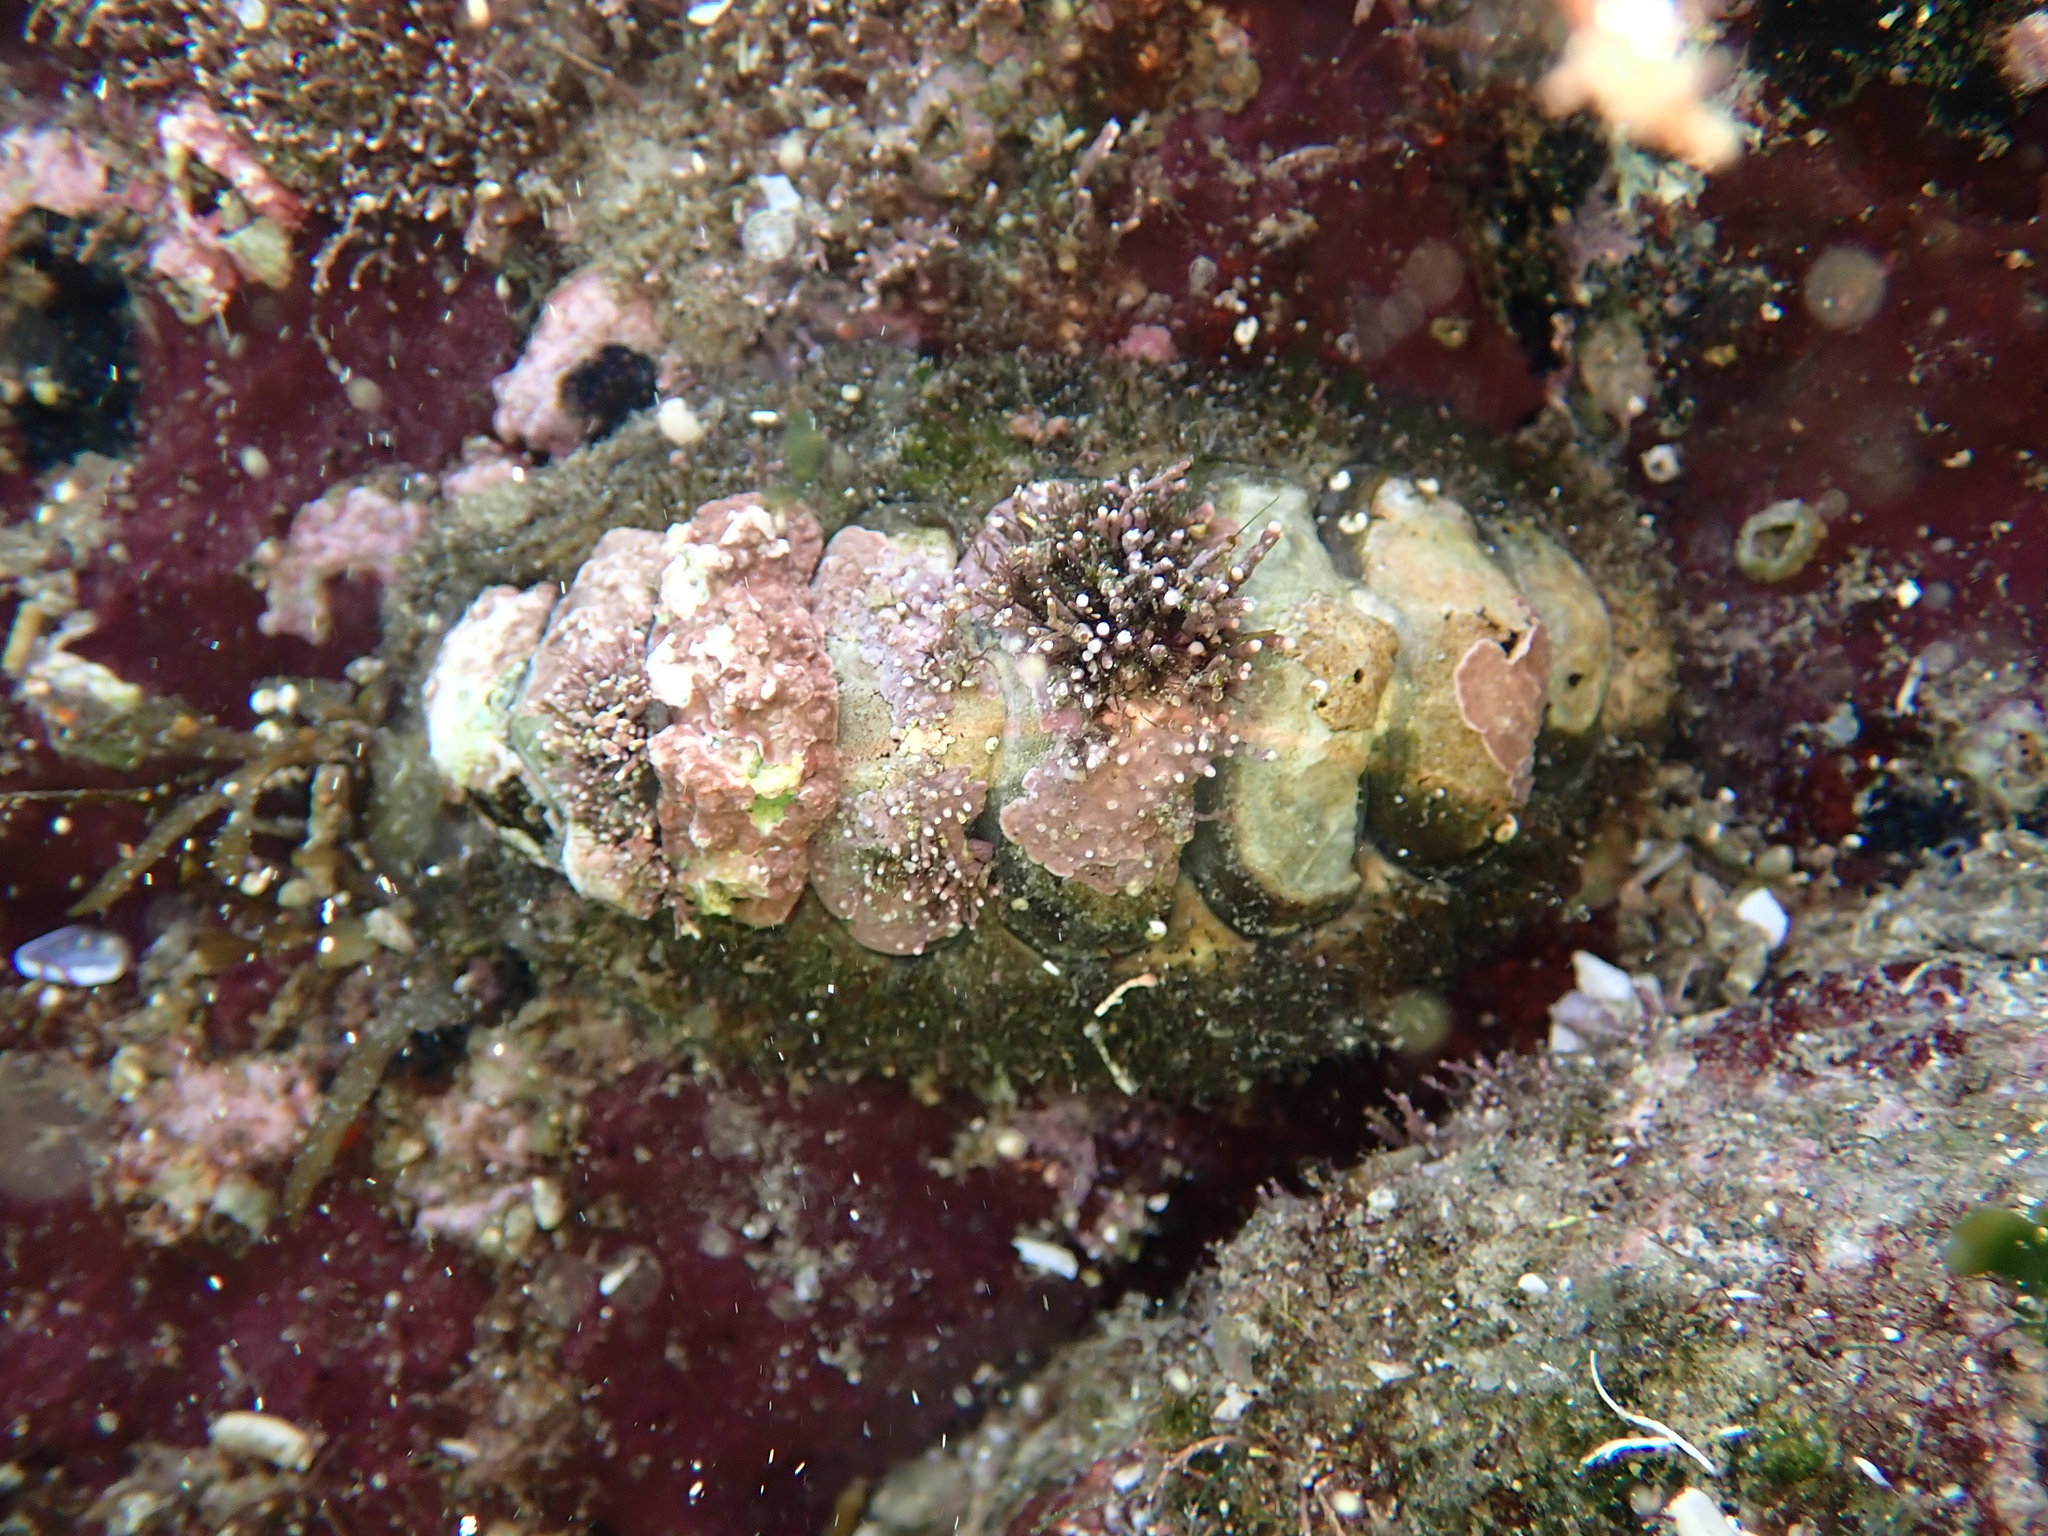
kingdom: Animalia
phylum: Mollusca
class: Polyplacophora
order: Chitonida
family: Mopaliidae
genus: Plaxiphora
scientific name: Plaxiphora albida
